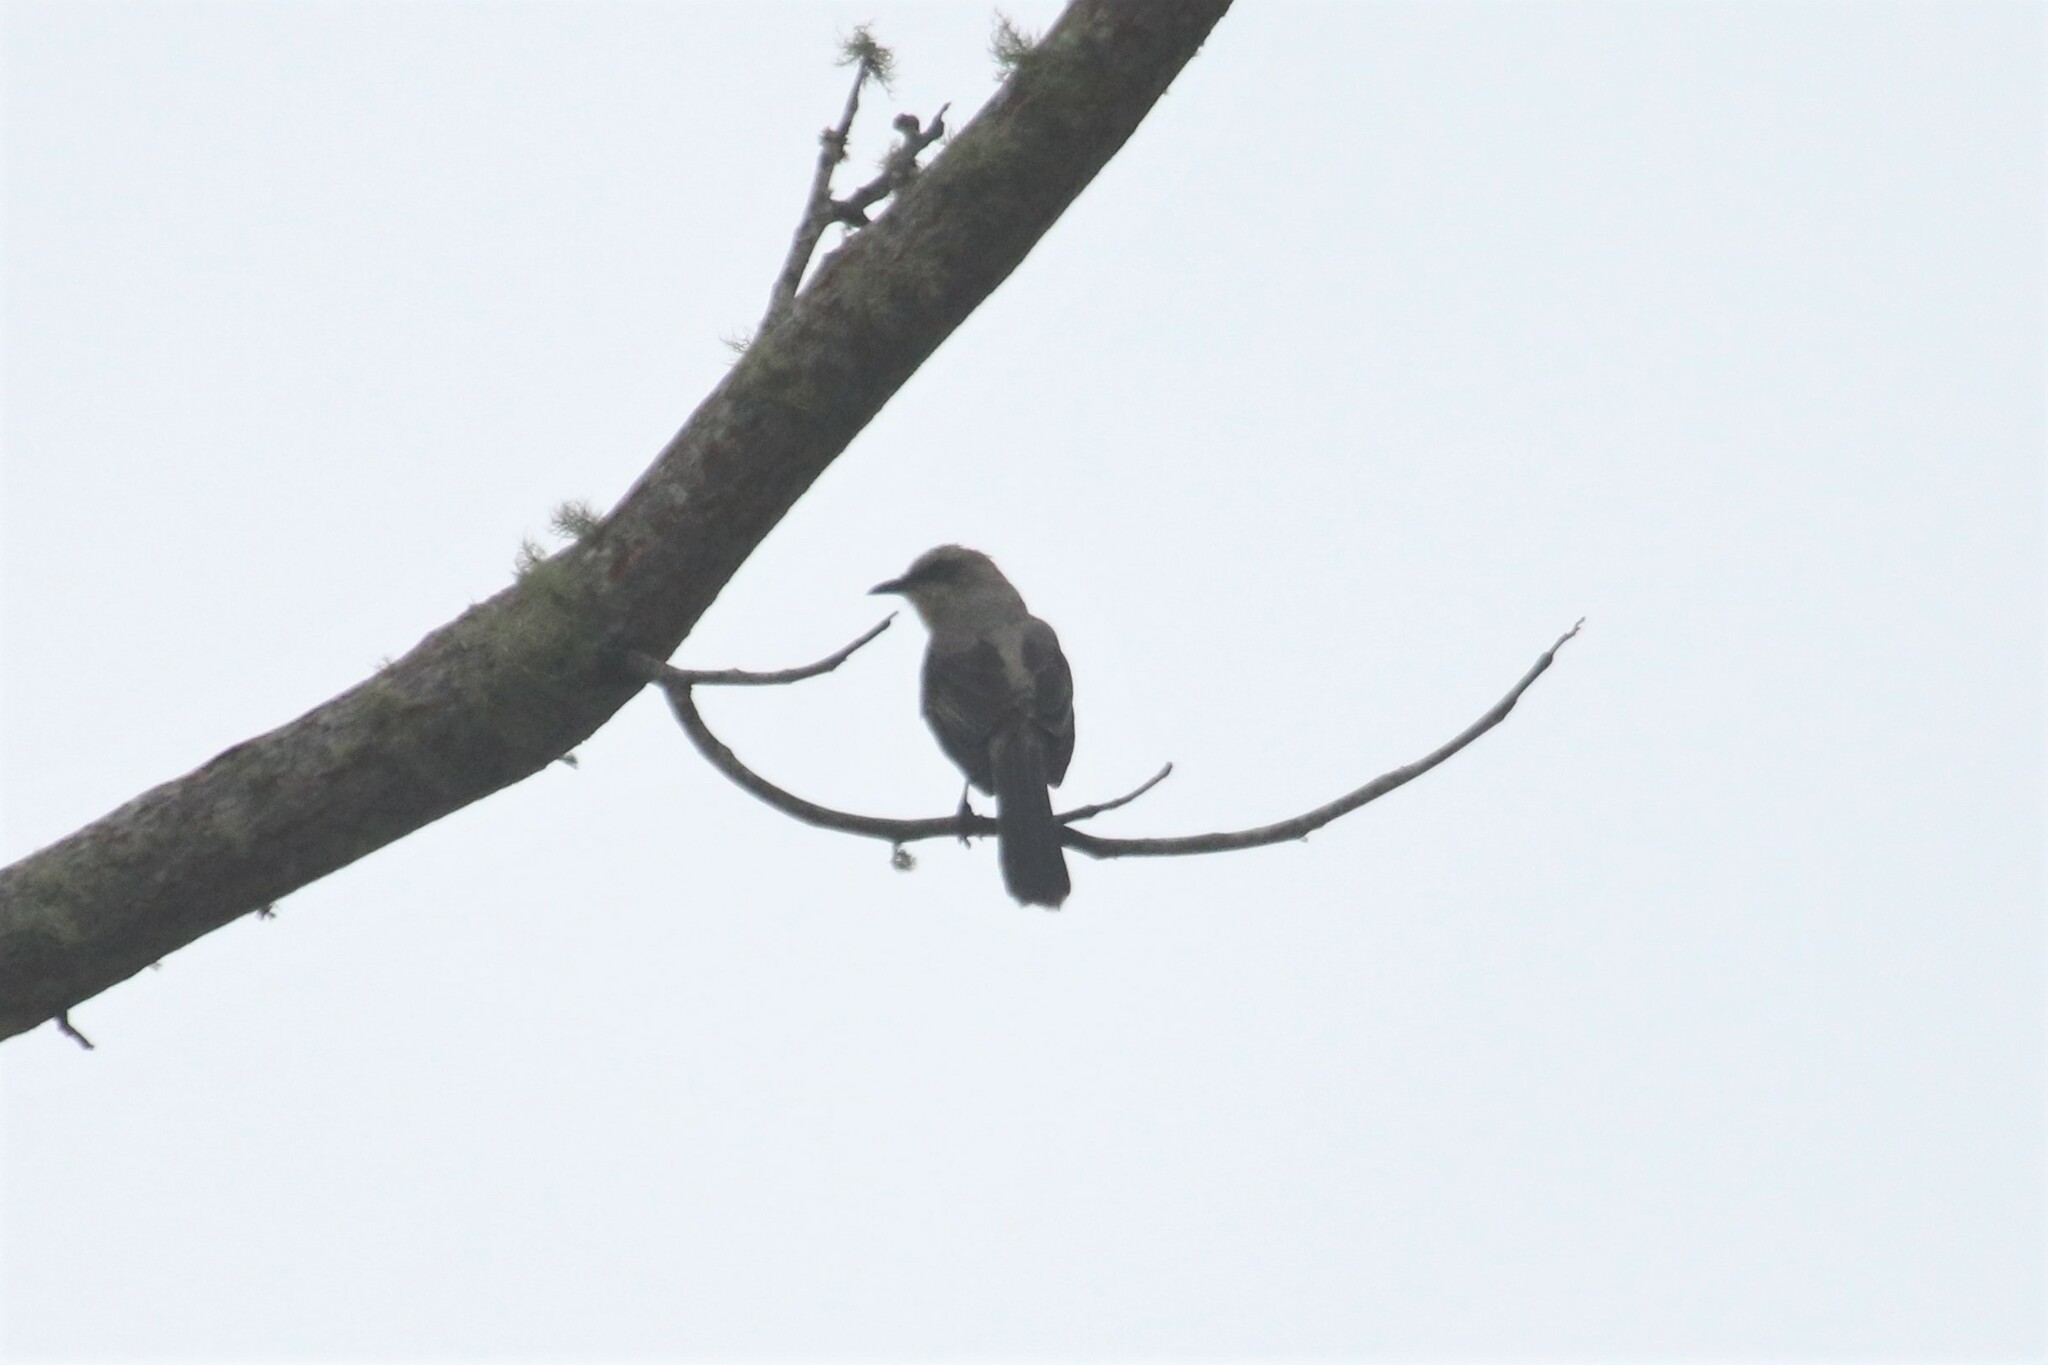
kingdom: Animalia
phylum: Chordata
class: Aves
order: Passeriformes
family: Mimidae
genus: Mimus
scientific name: Mimus gilvus
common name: Tropical mockingbird
